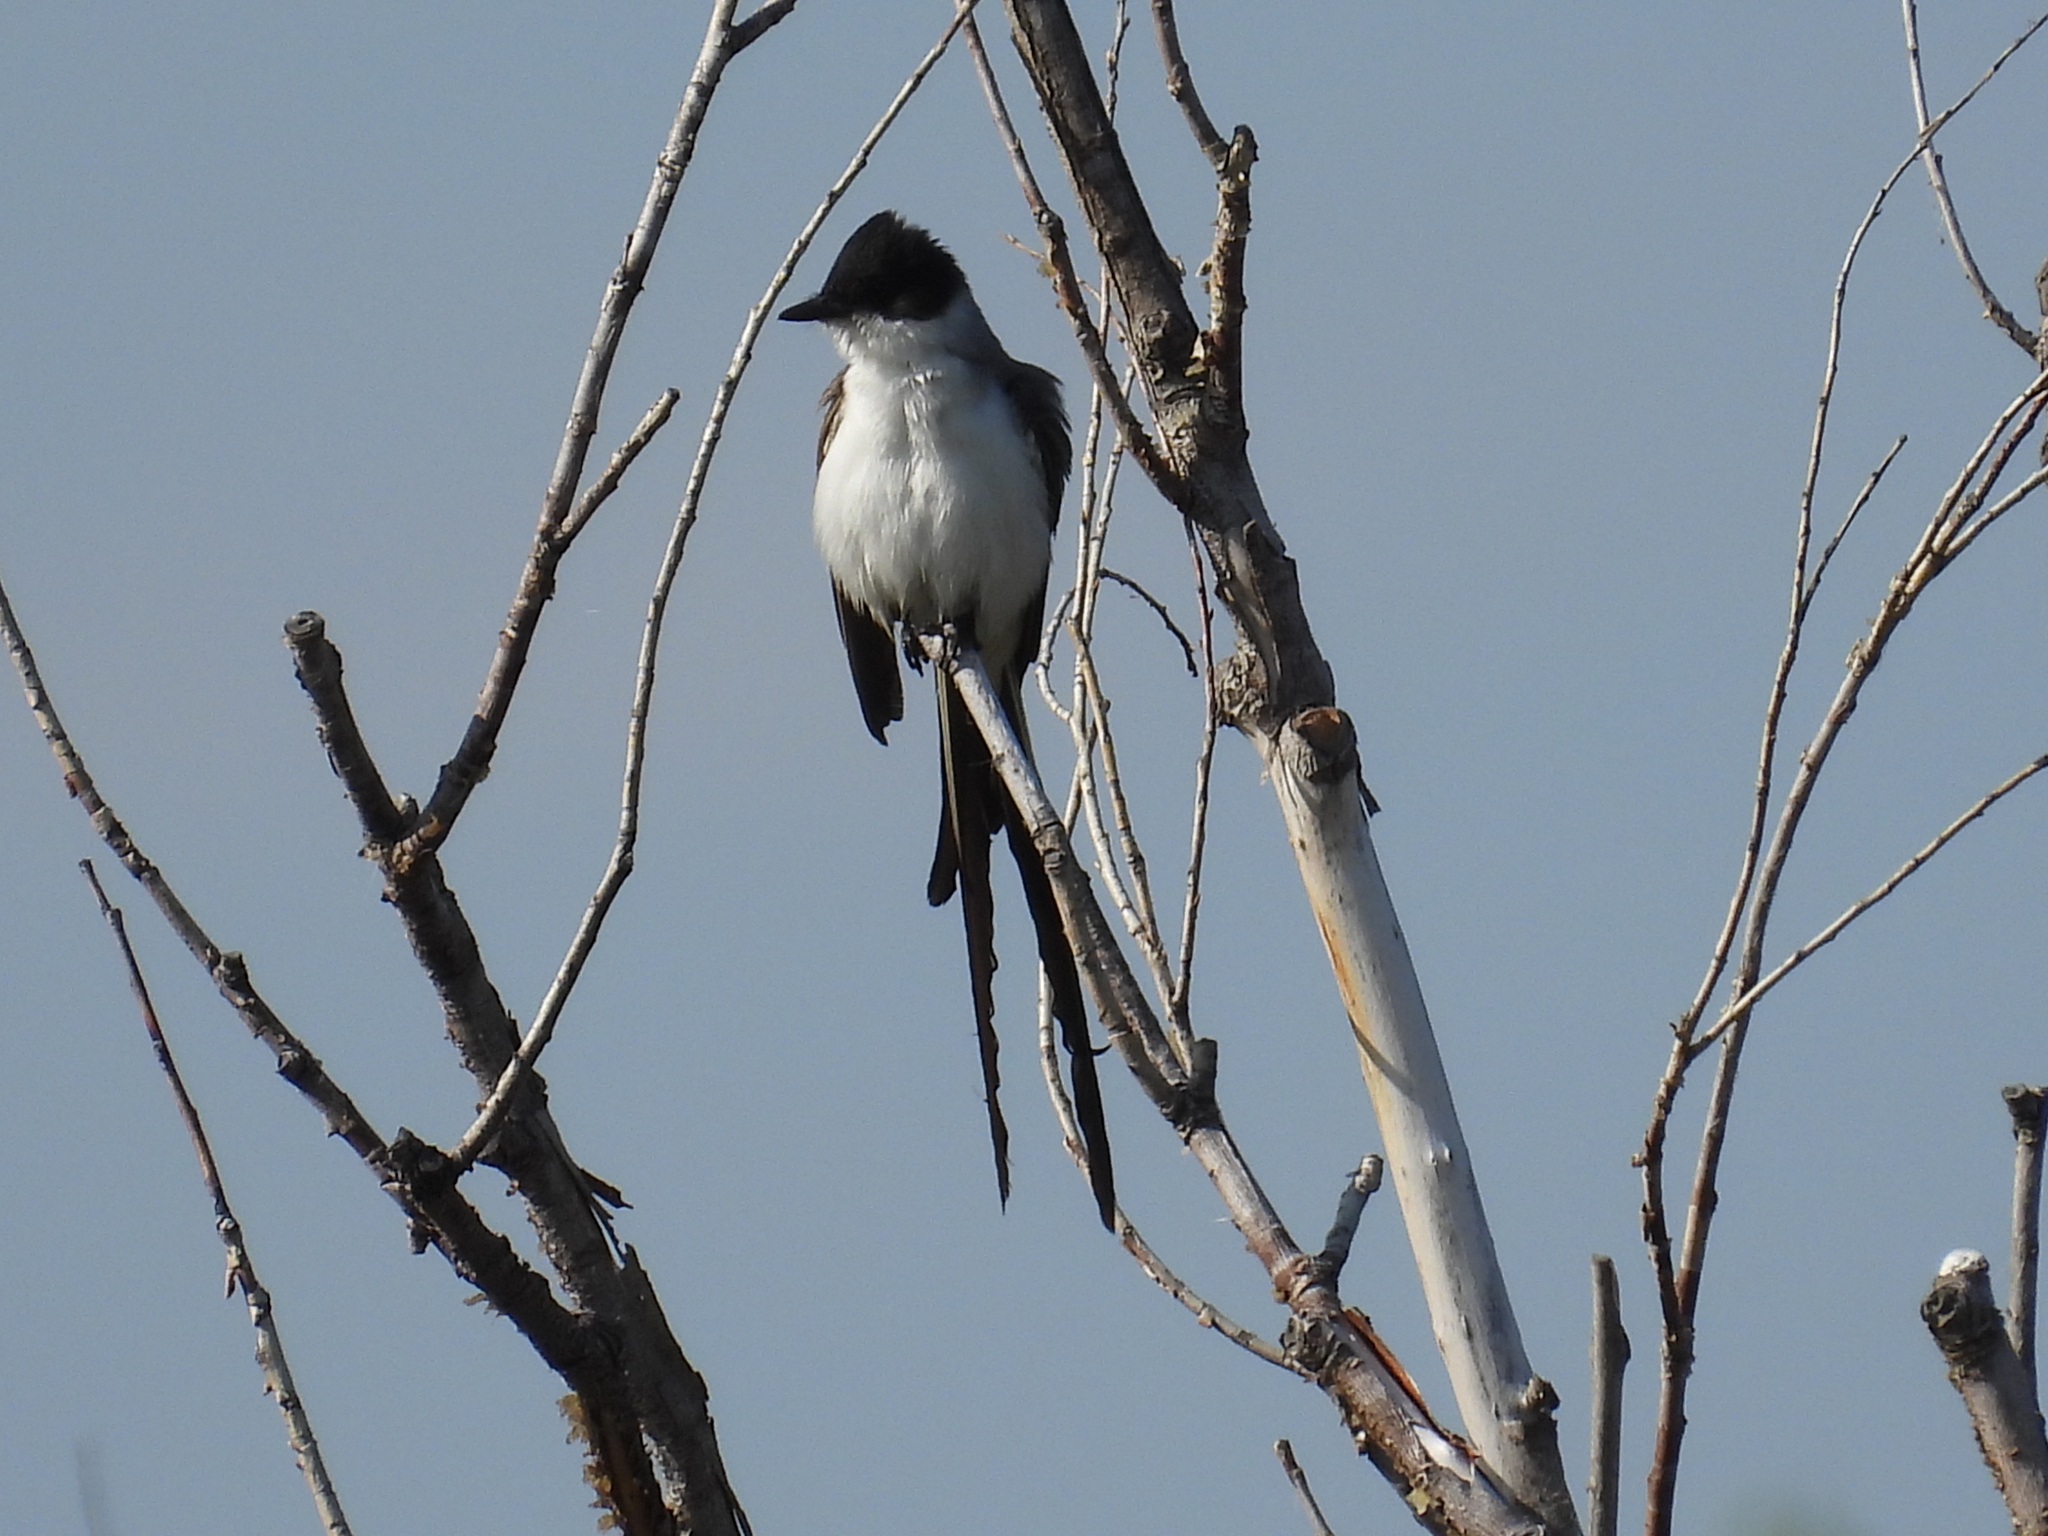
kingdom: Animalia
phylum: Chordata
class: Aves
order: Passeriformes
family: Tyrannidae
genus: Tyrannus
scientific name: Tyrannus savana
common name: Fork-tailed flycatcher
